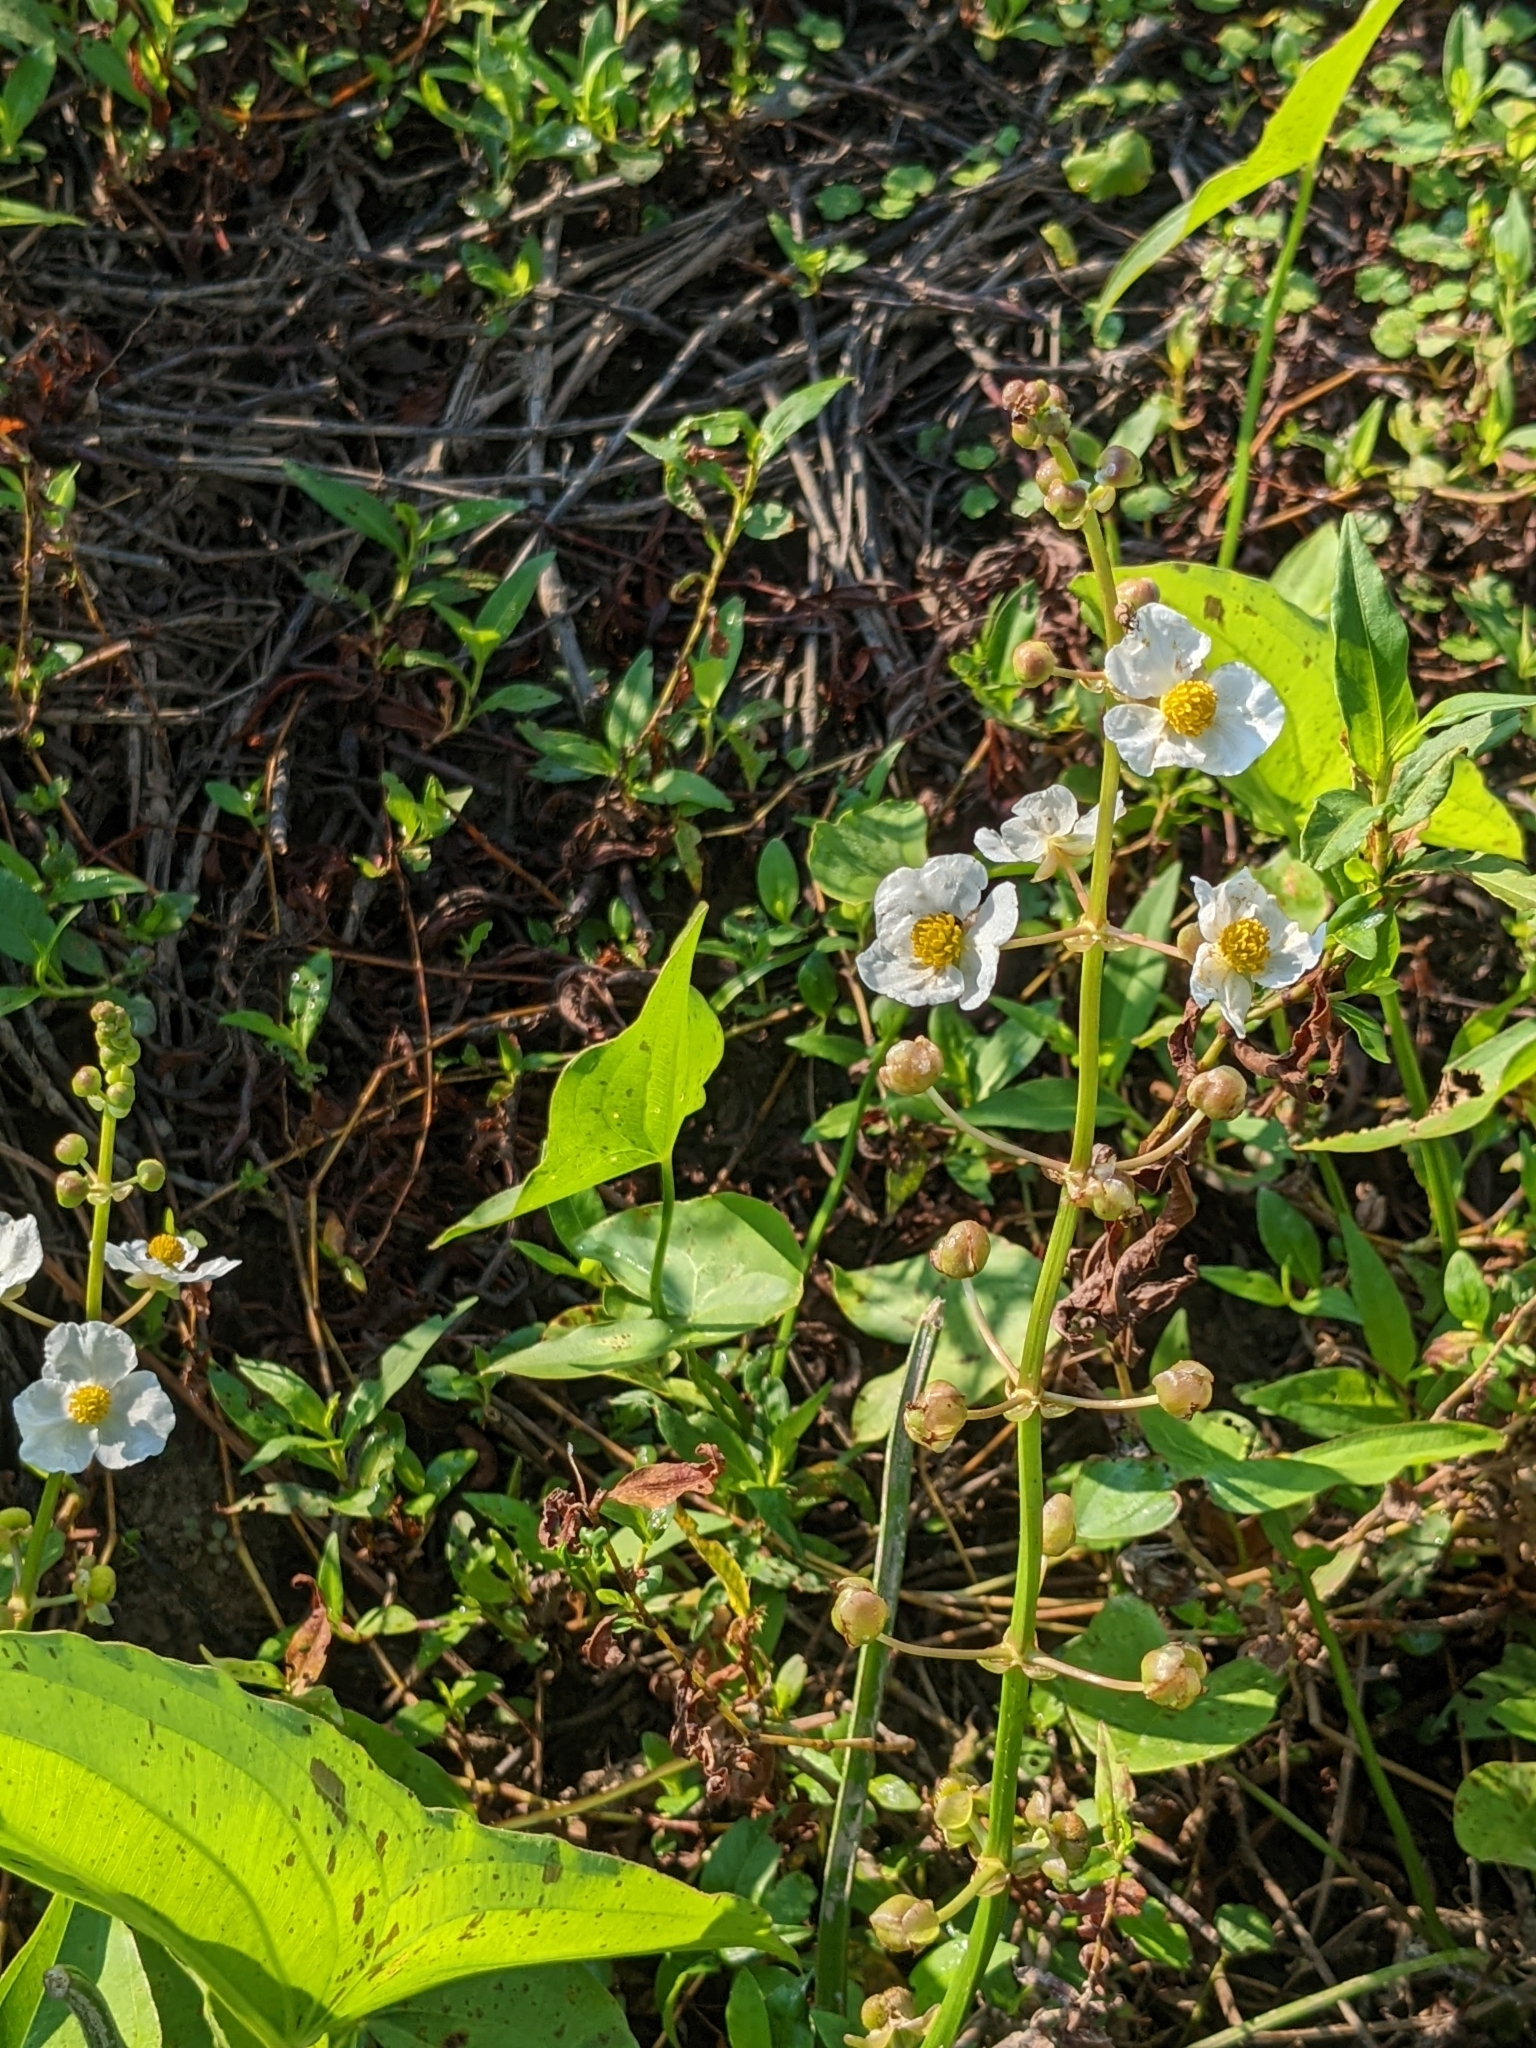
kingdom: Plantae
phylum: Tracheophyta
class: Liliopsida
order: Alismatales
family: Alismataceae
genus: Sagittaria
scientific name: Sagittaria latifolia
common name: Duck-potato
